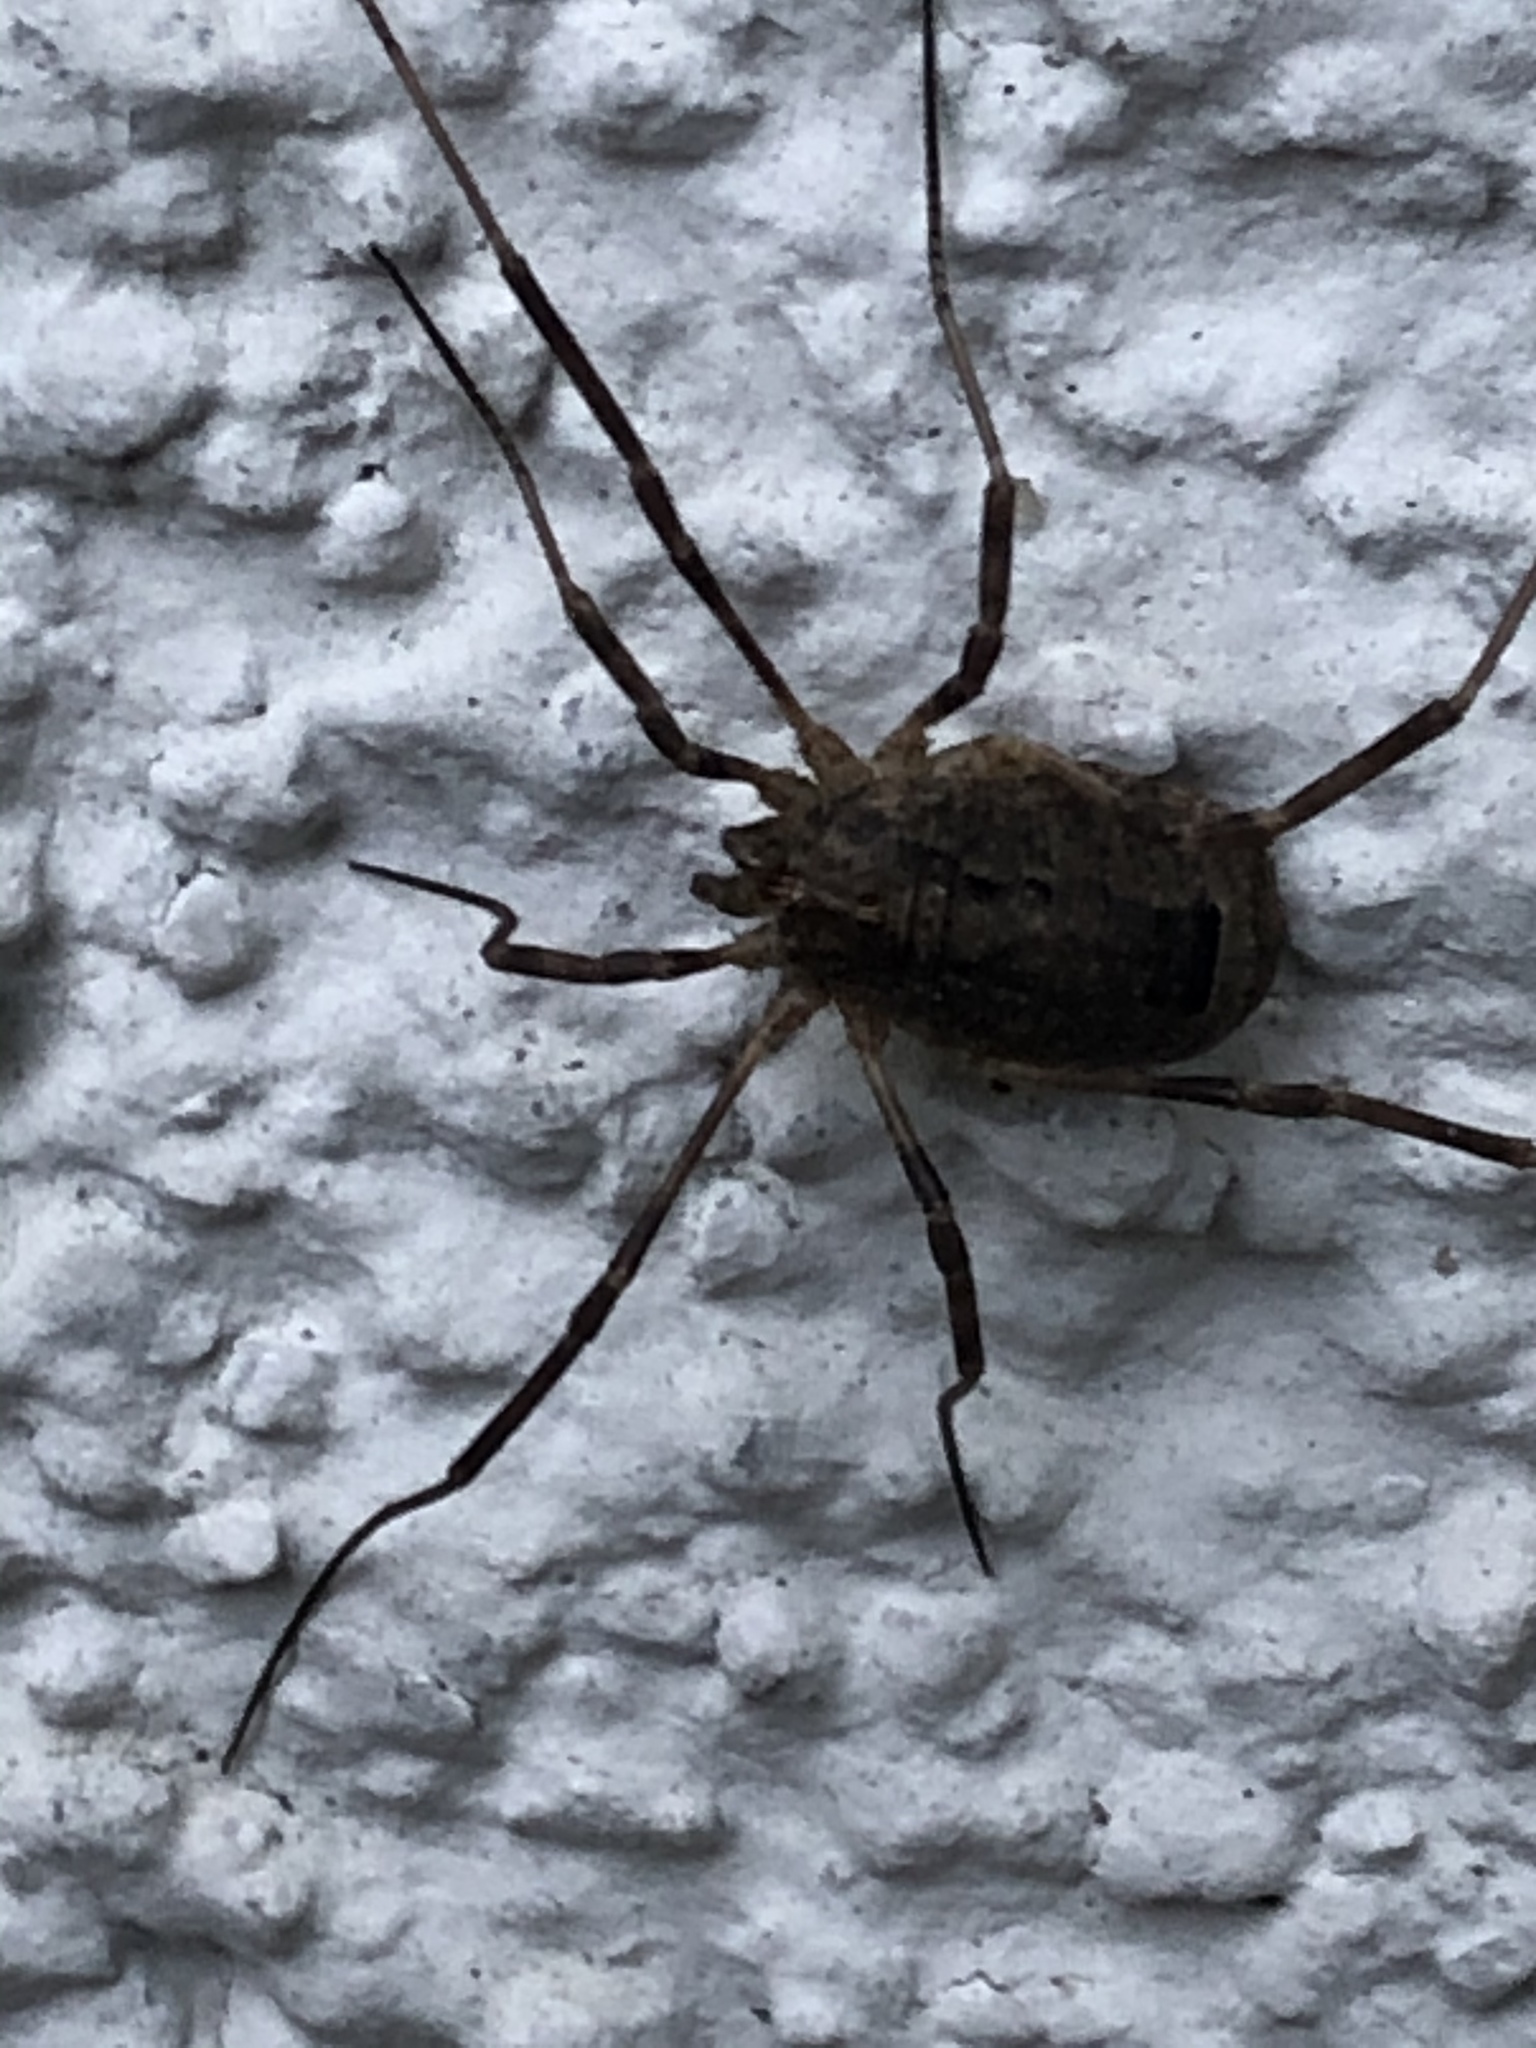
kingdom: Animalia
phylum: Arthropoda
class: Arachnida
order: Opiliones
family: Phalangiidae
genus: Odiellus
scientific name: Odiellus spinosus
